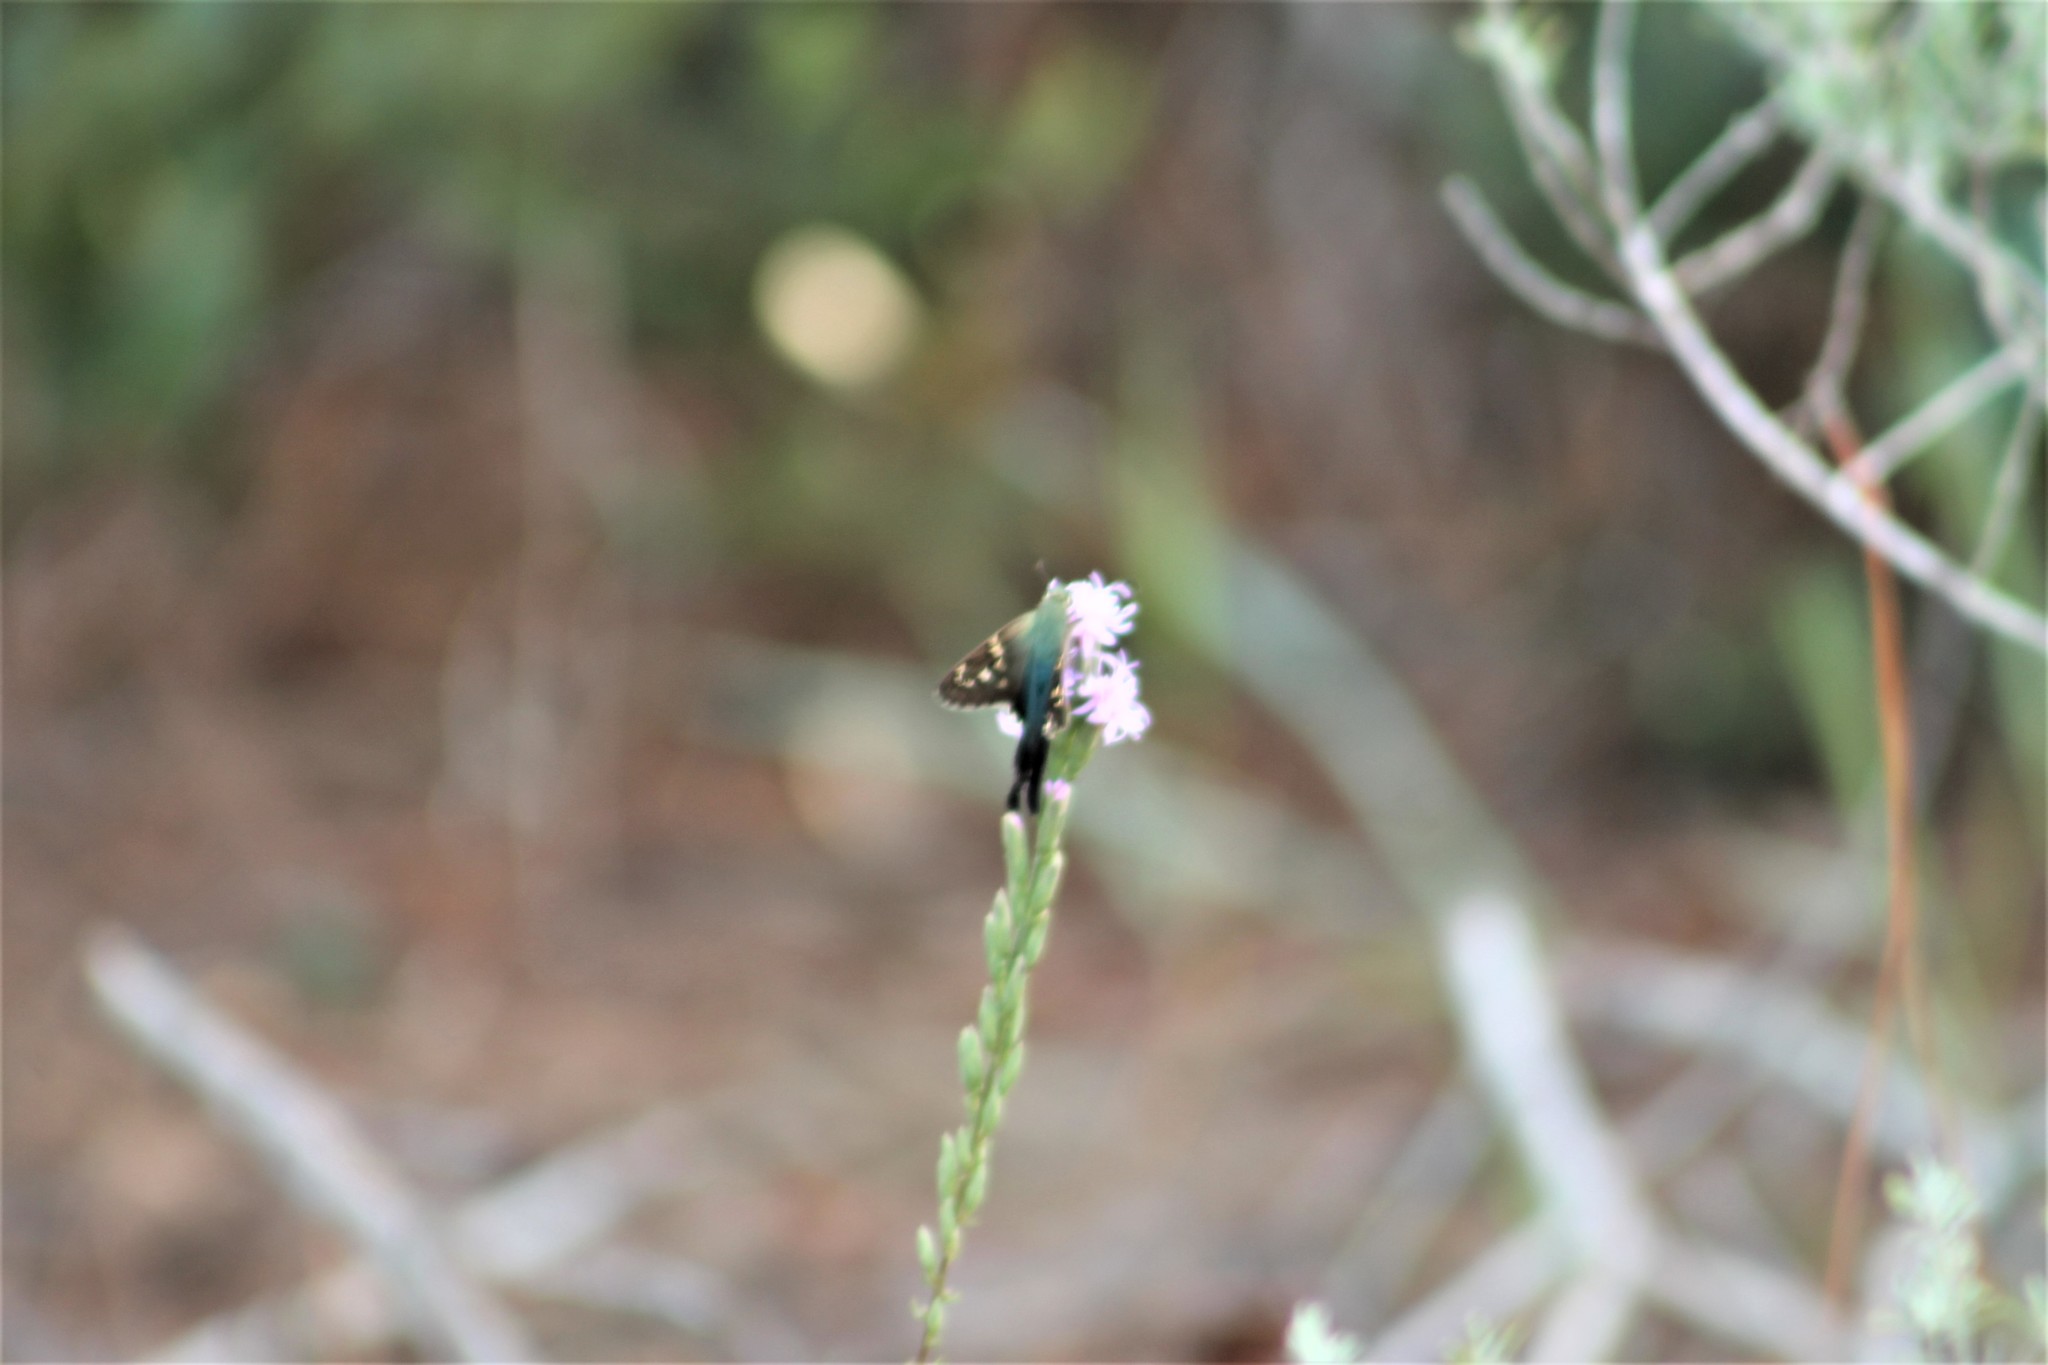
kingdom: Animalia
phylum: Arthropoda
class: Insecta
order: Lepidoptera
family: Hesperiidae
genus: Urbanus
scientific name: Urbanus proteus
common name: Long-tailed skipper
